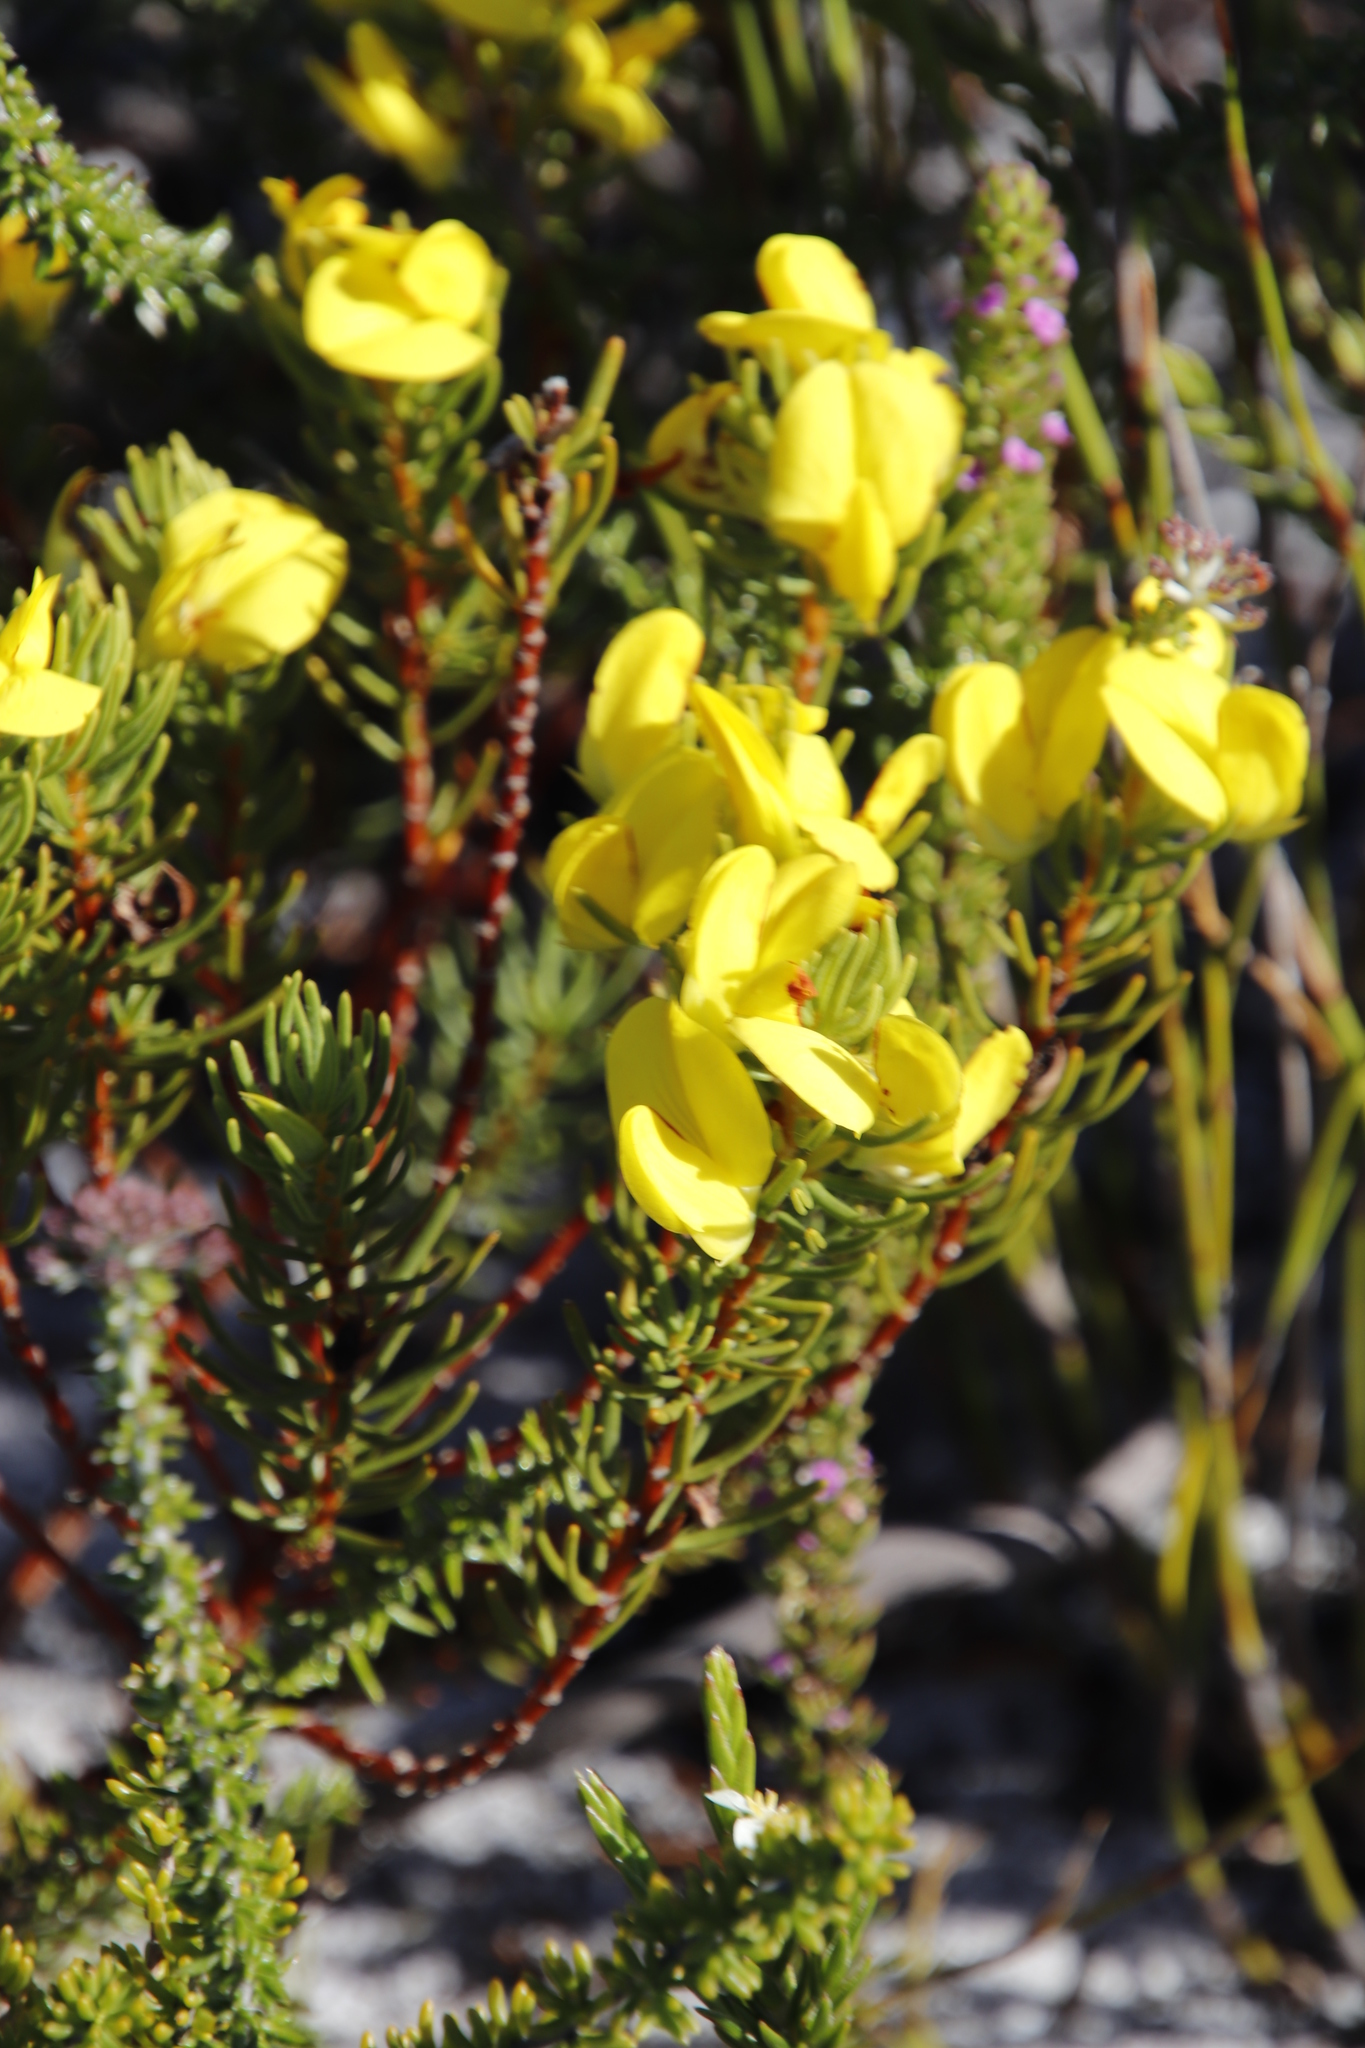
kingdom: Plantae
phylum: Tracheophyta
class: Magnoliopsida
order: Fabales
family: Fabaceae
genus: Cyclopia
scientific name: Cyclopia genistoides
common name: Honeybush tea
